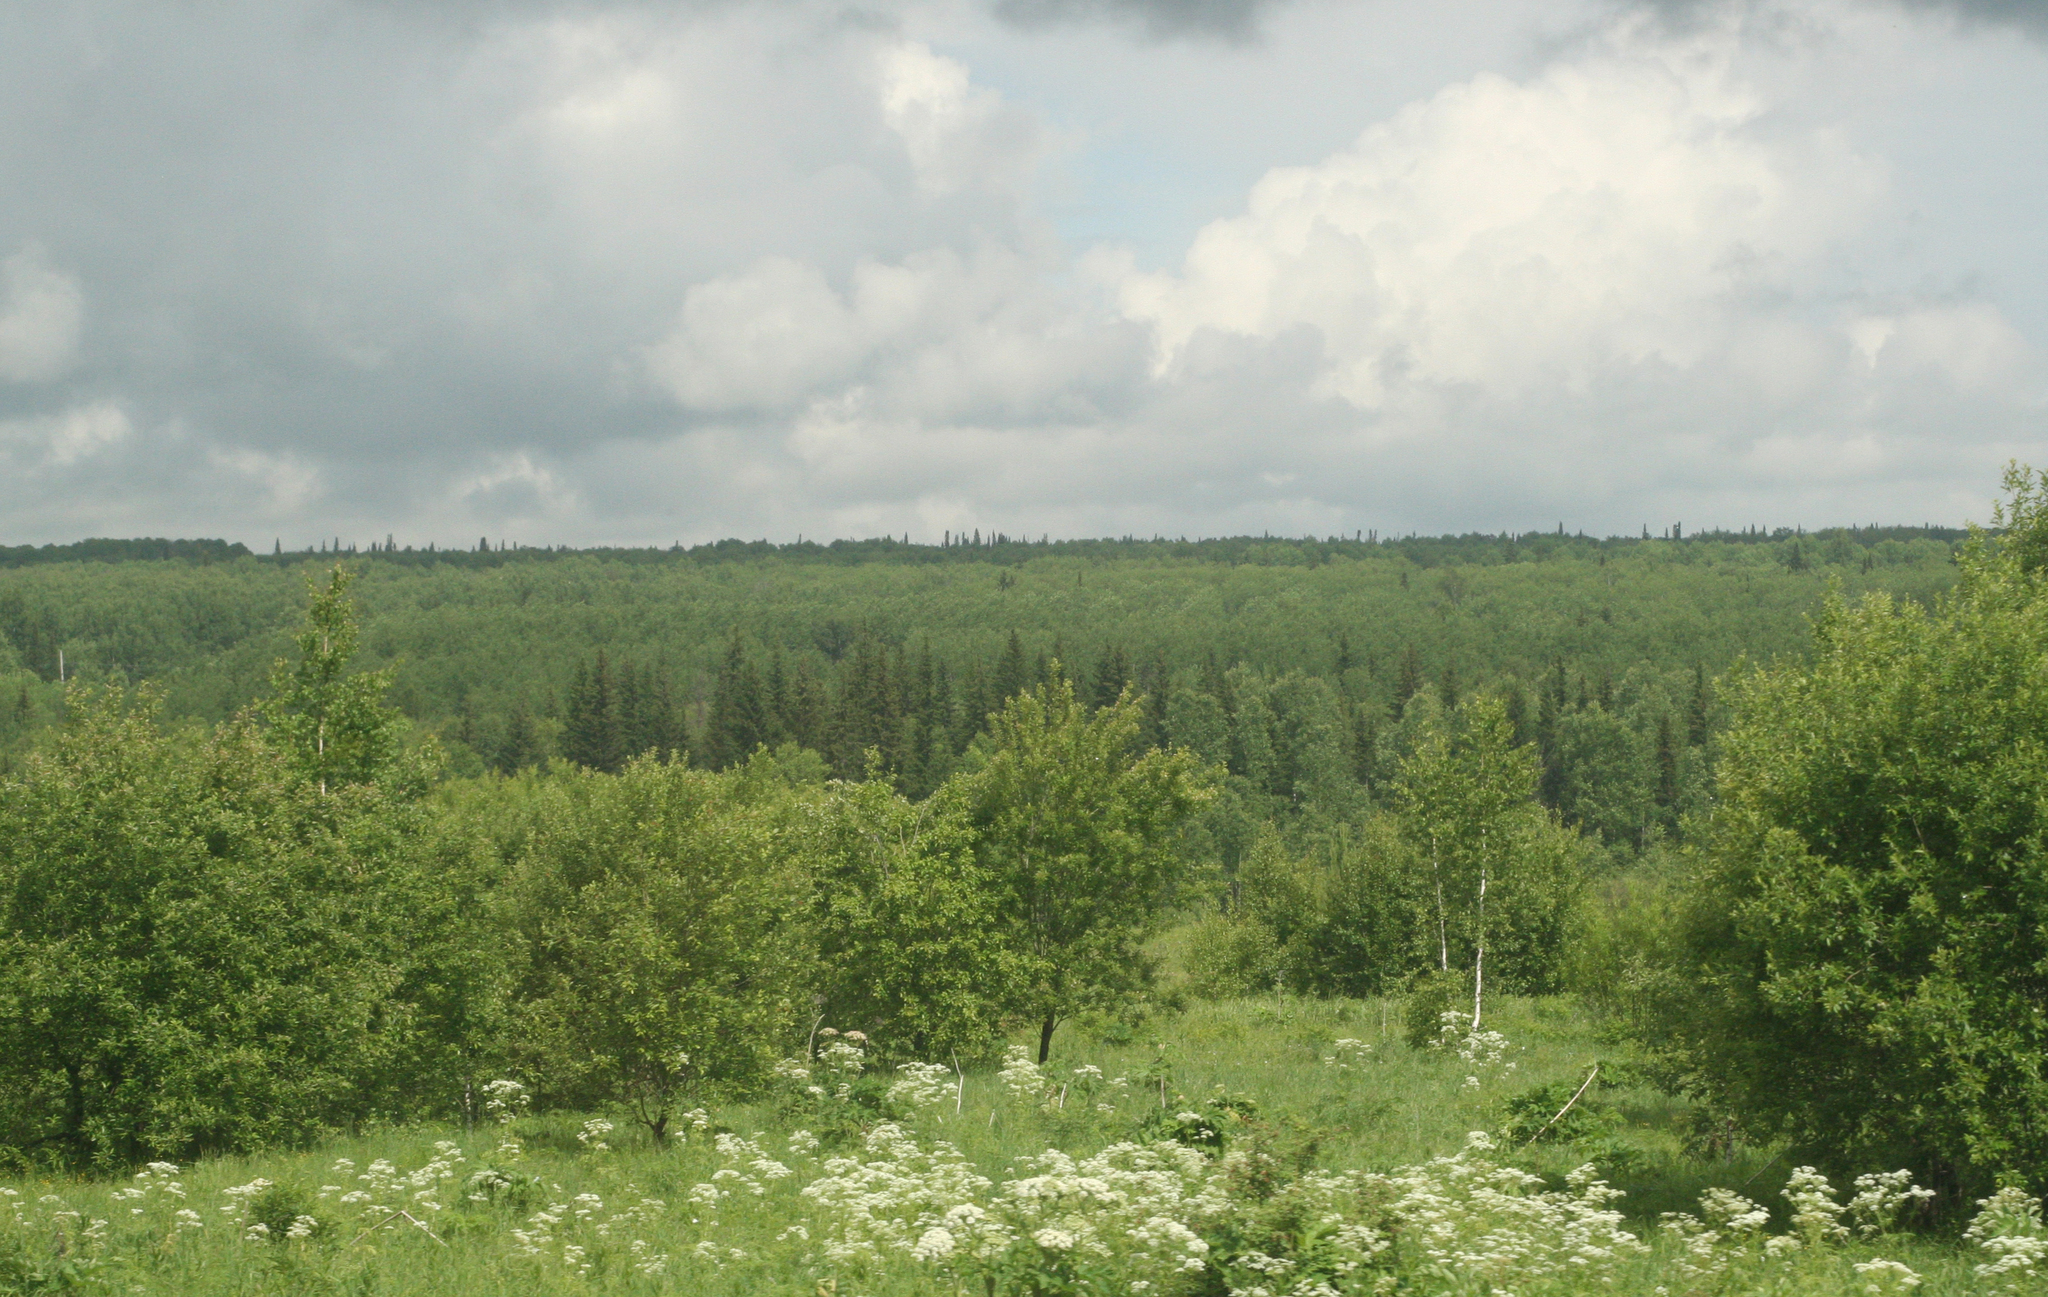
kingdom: Plantae
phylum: Tracheophyta
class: Magnoliopsida
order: Apiales
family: Apiaceae
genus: Heracleum
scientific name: Heracleum dissectum
